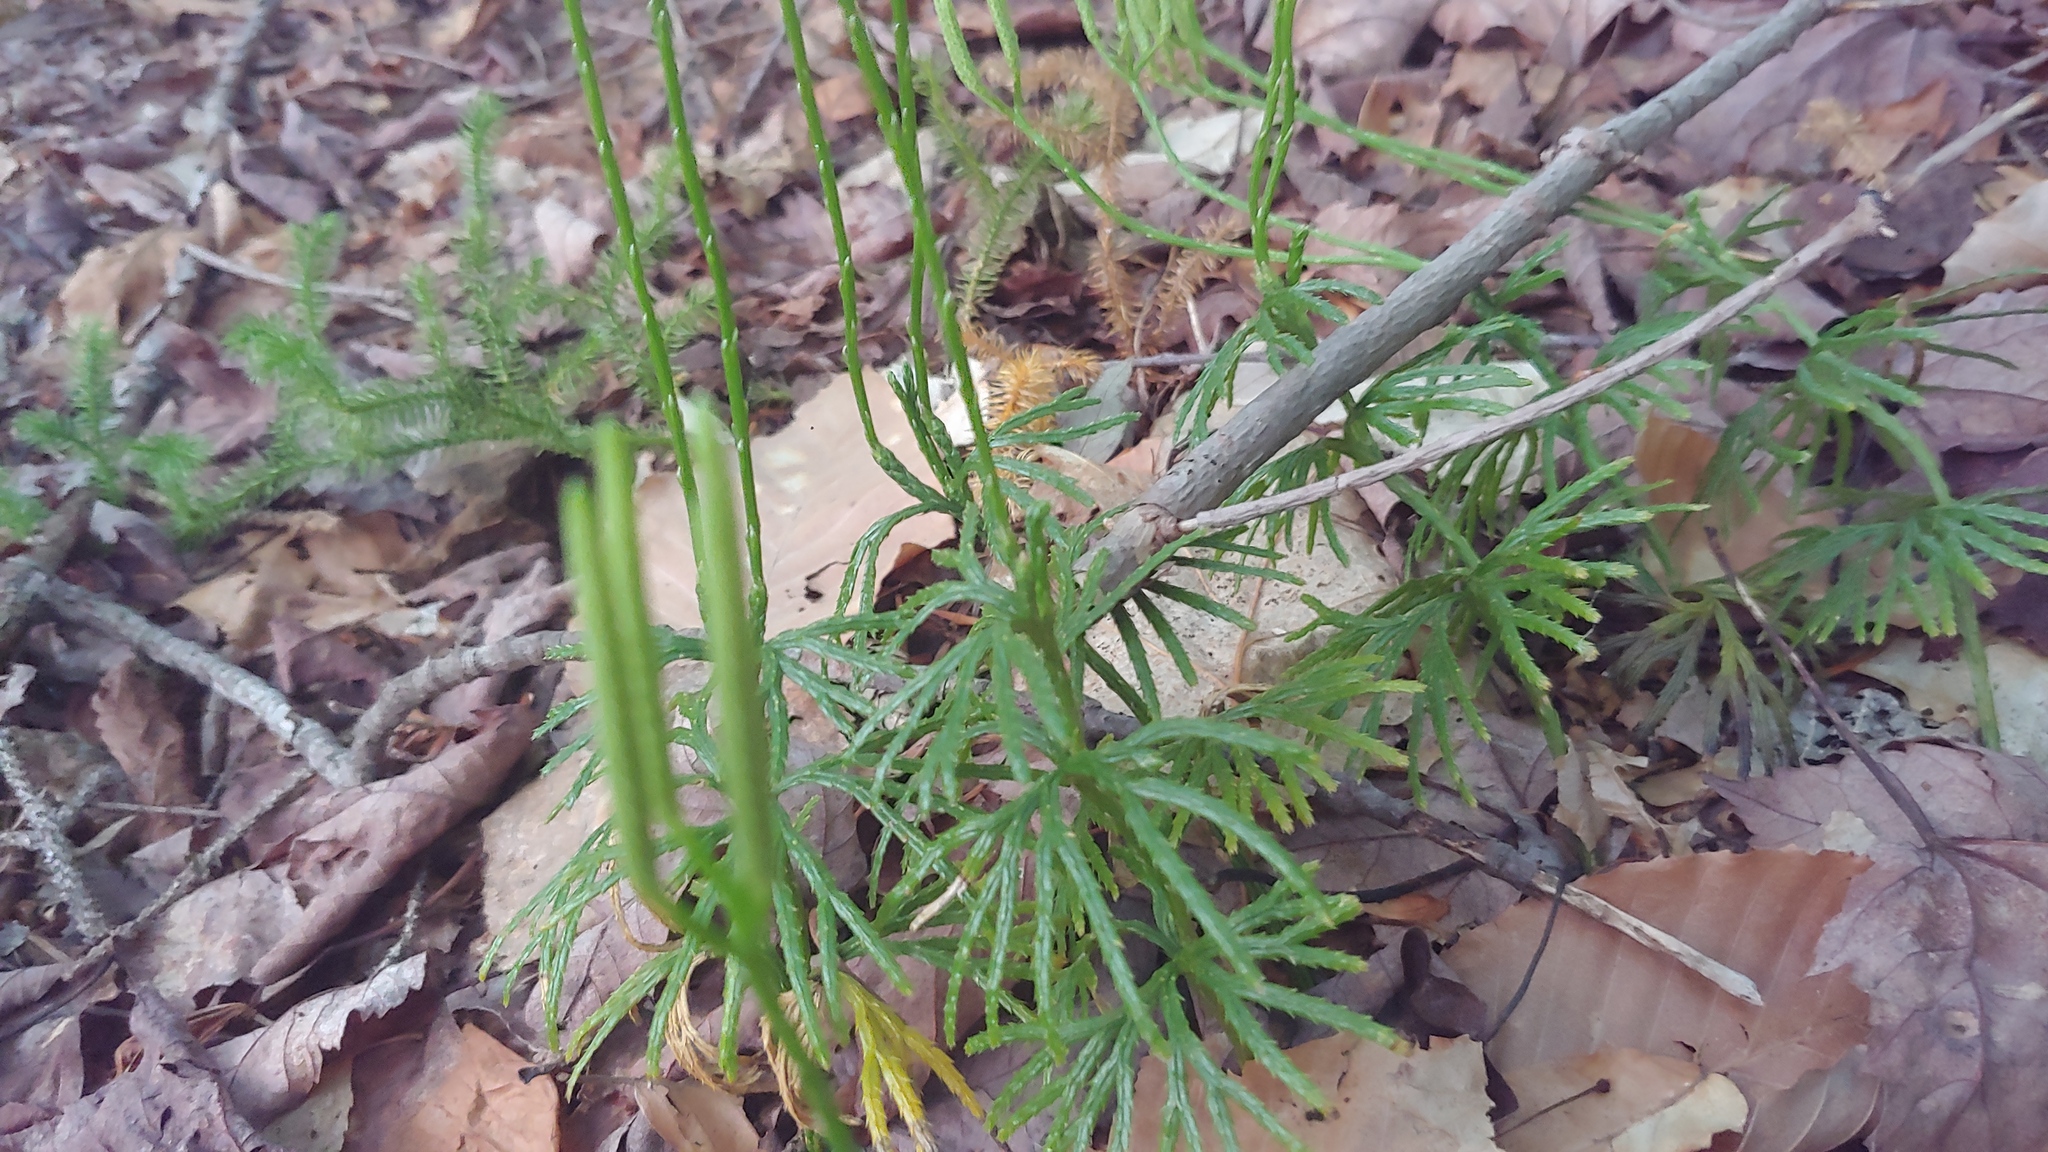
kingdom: Plantae
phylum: Tracheophyta
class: Lycopodiopsida
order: Lycopodiales
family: Lycopodiaceae
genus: Diphasiastrum
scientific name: Diphasiastrum digitatum
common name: Southern running-pine
